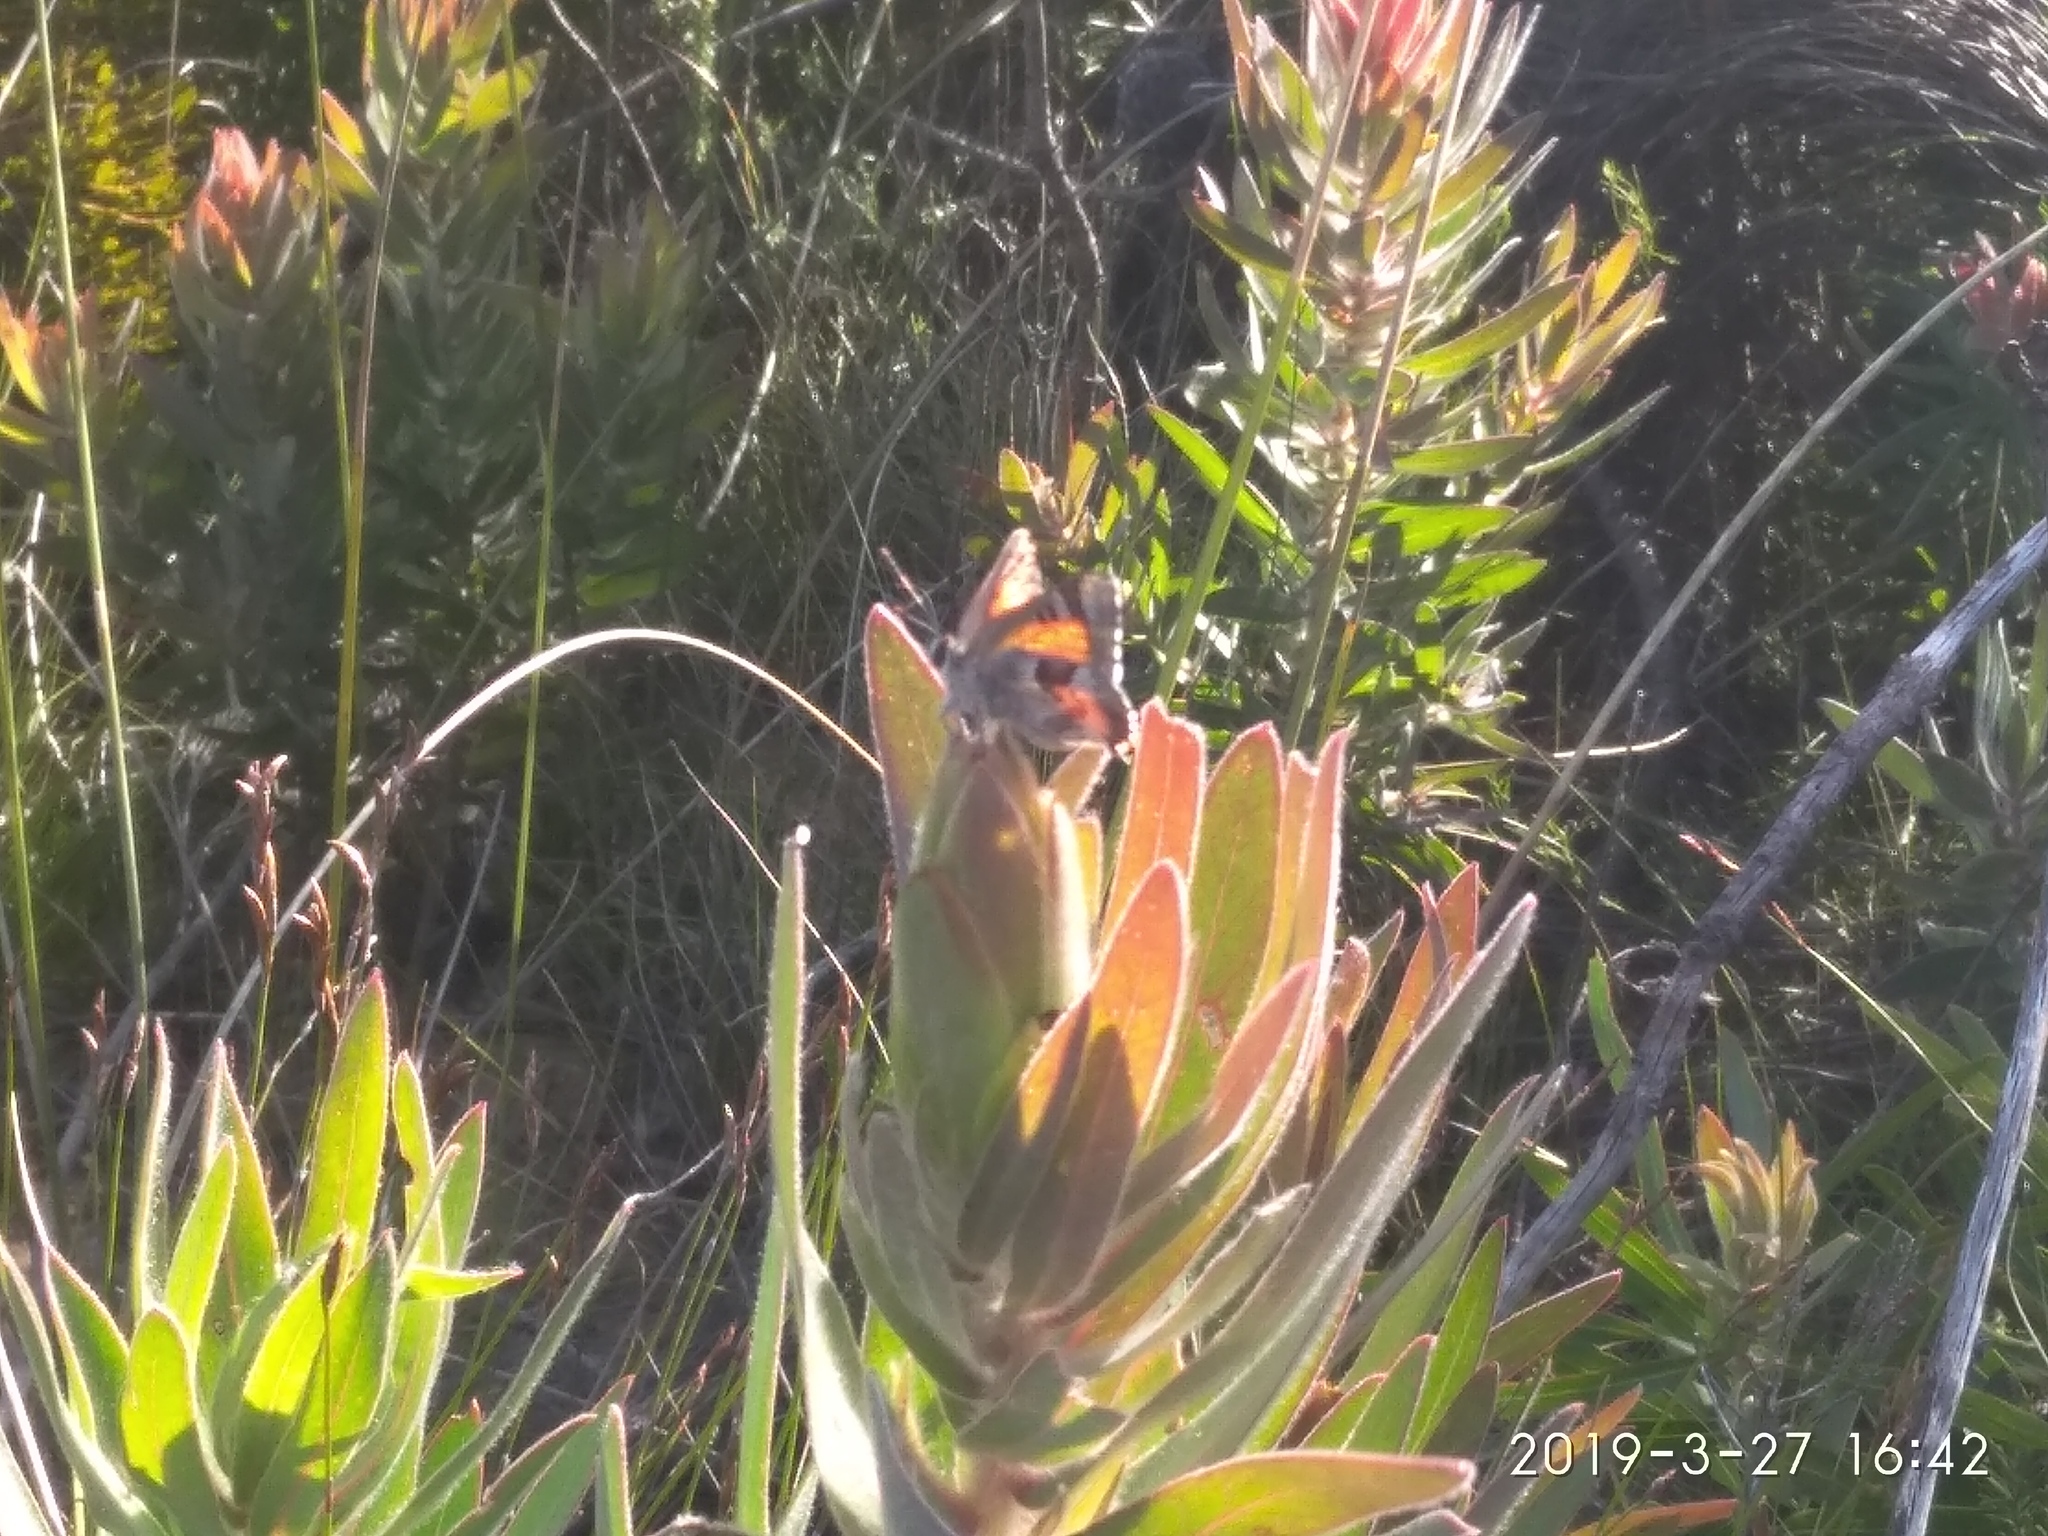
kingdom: Animalia
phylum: Arthropoda
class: Insecta
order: Lepidoptera
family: Lycaenidae
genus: Capys
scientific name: Capys alpheus
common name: Orange-banded protea butterfly
